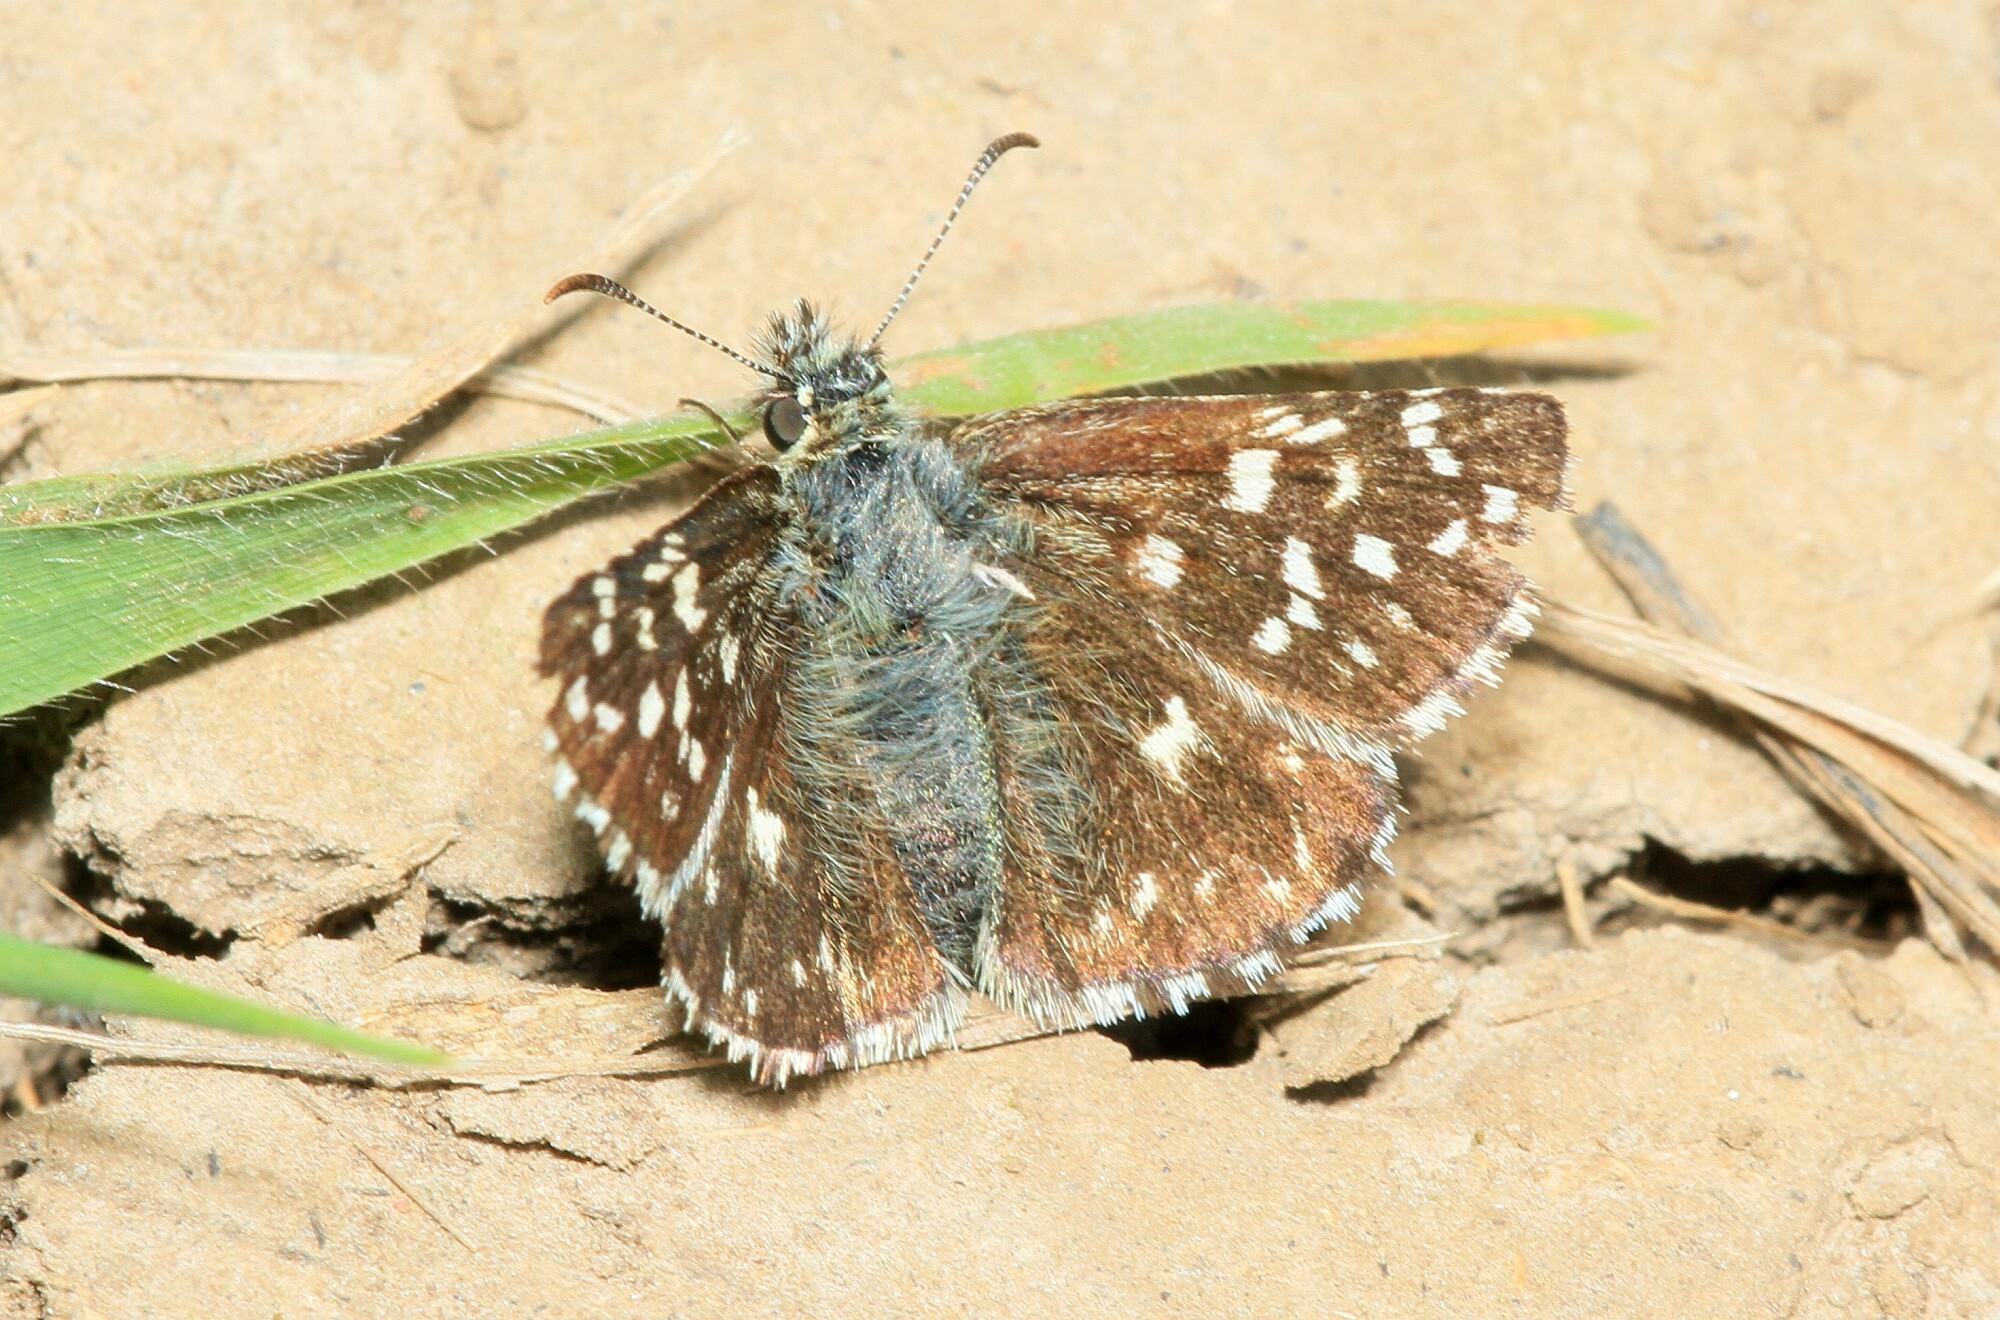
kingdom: Animalia
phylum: Arthropoda
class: Insecta
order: Lepidoptera
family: Hesperiidae
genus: Pyrgus
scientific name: Pyrgus malvae
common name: Grizzled skipper
